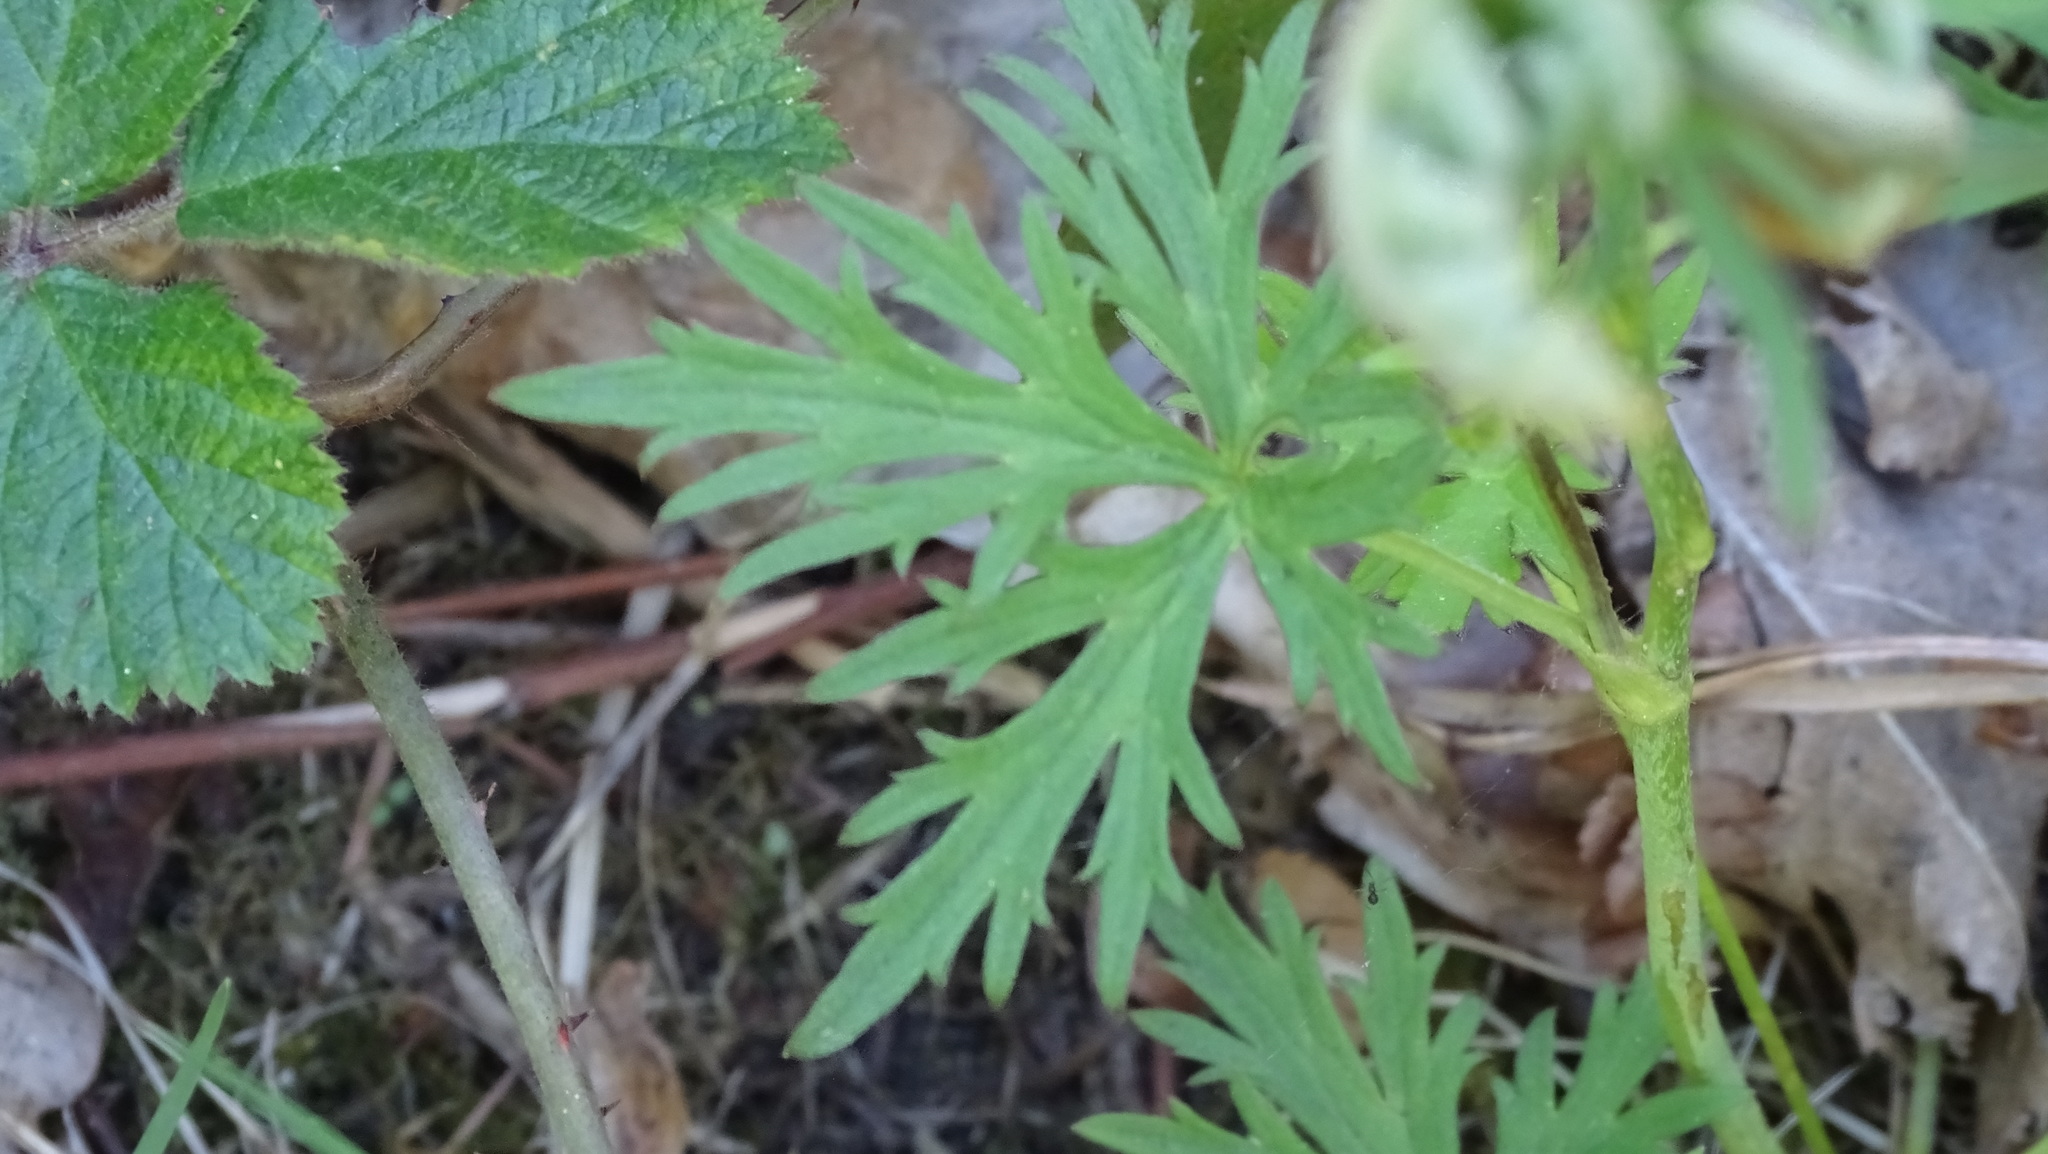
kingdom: Plantae
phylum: Tracheophyta
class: Magnoliopsida
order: Ranunculales
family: Ranunculaceae
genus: Ranunculus
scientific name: Ranunculus acris
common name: Meadow buttercup
